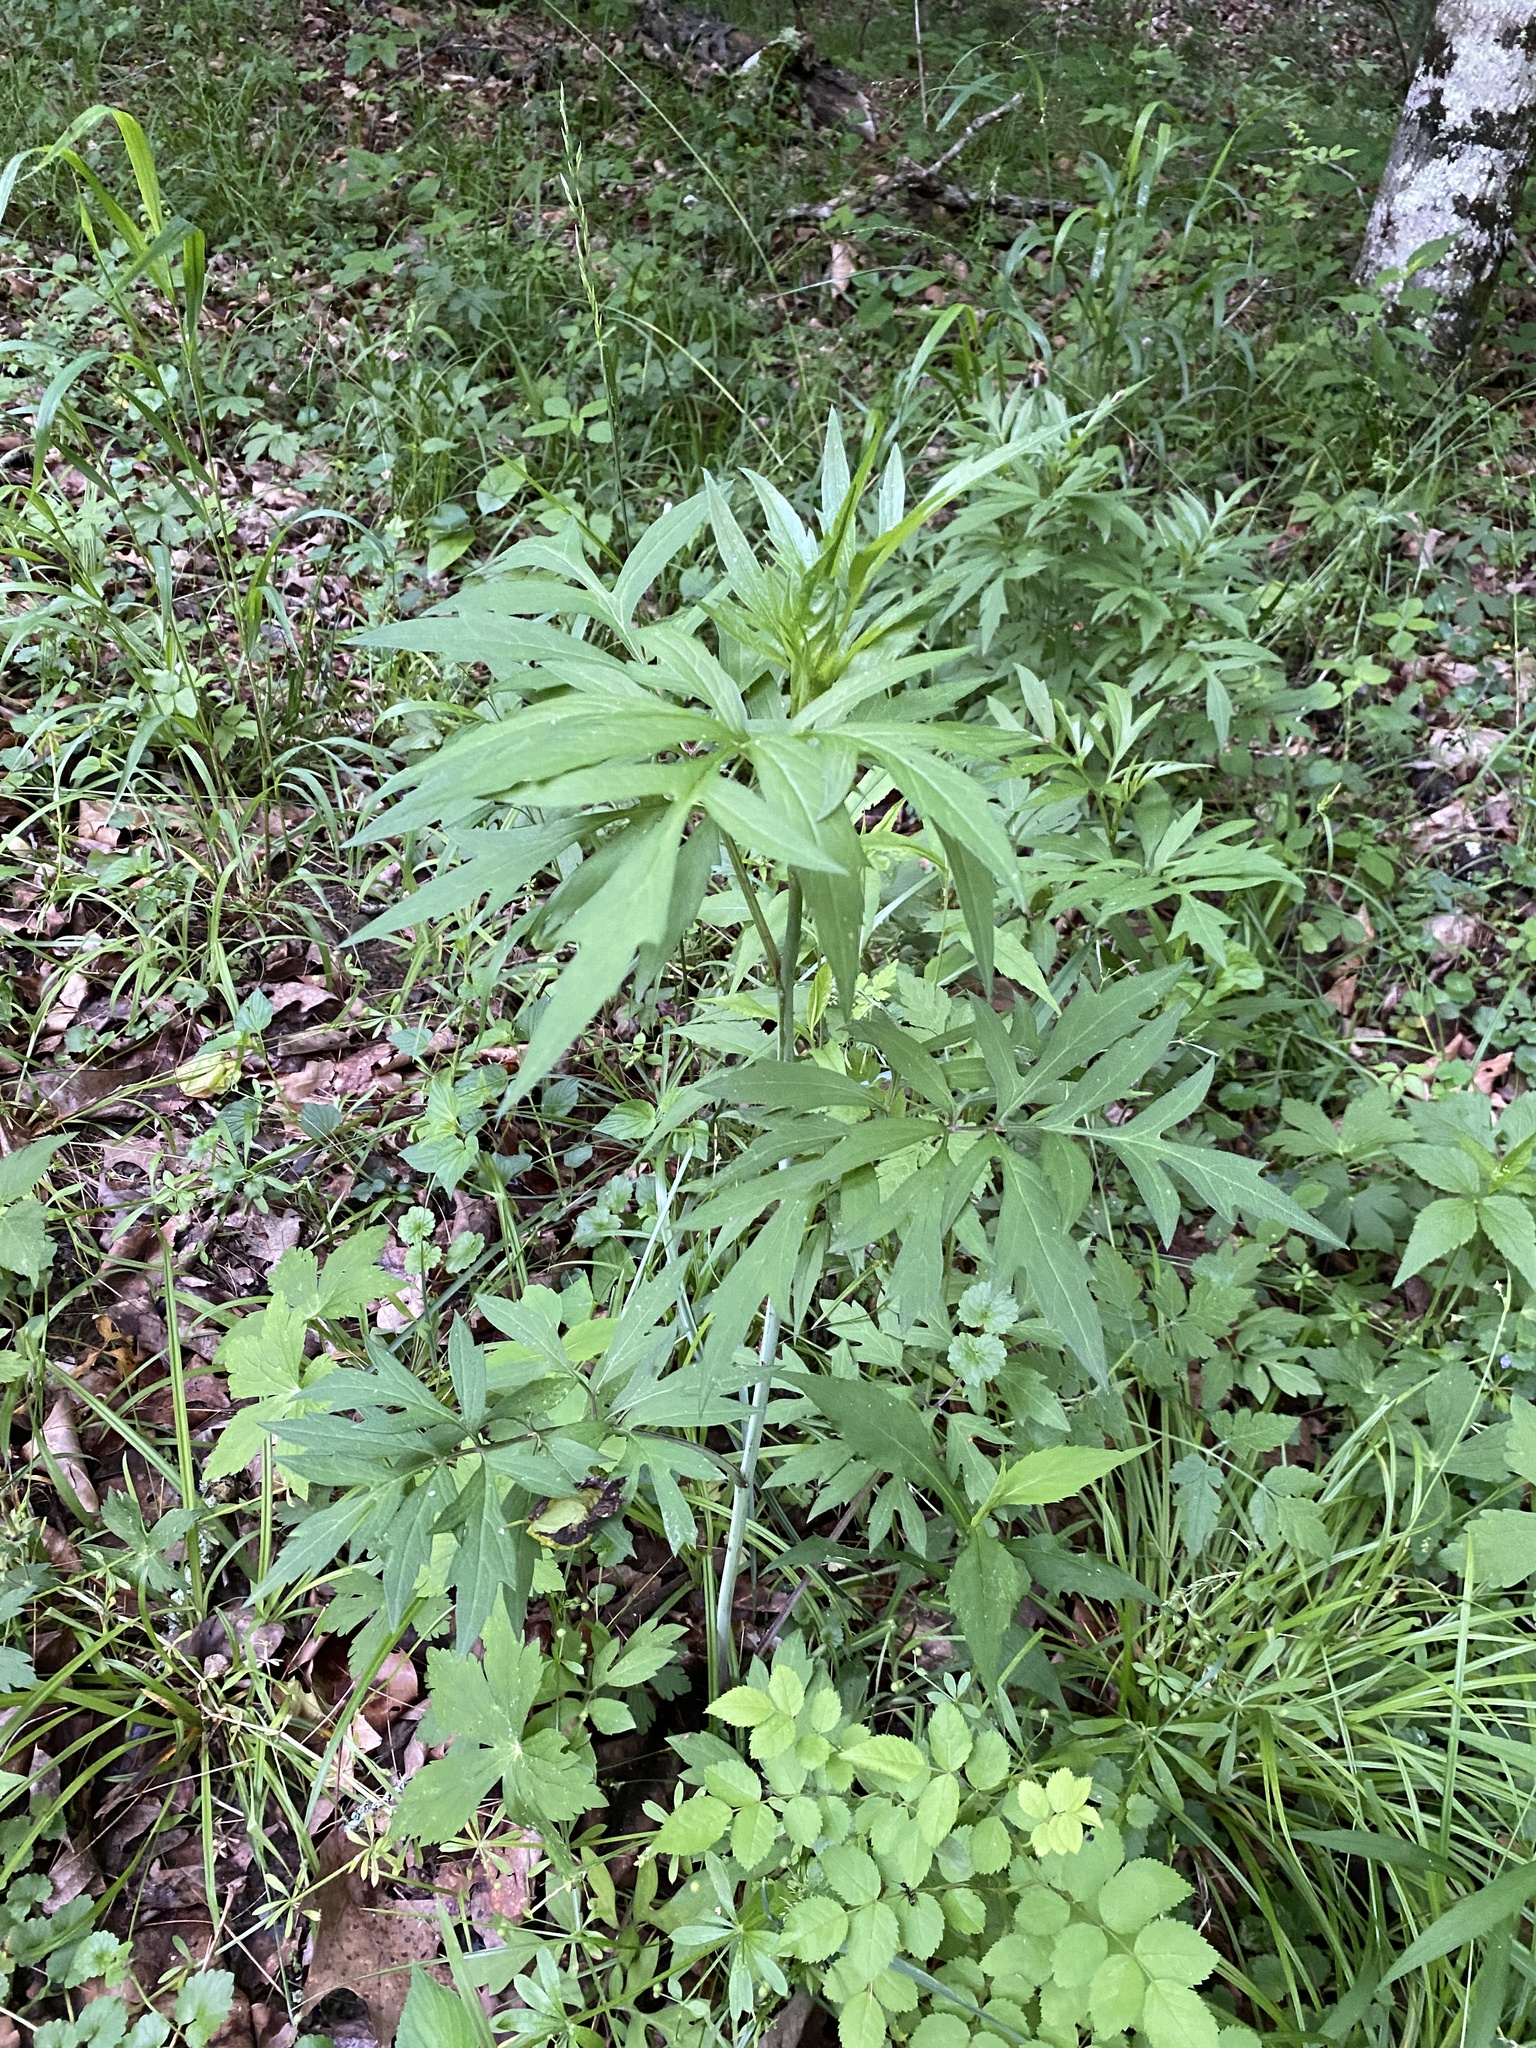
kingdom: Plantae
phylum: Tracheophyta
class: Magnoliopsida
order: Asterales
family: Asteraceae
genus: Rudbeckia
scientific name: Rudbeckia laciniata
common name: Coneflower
